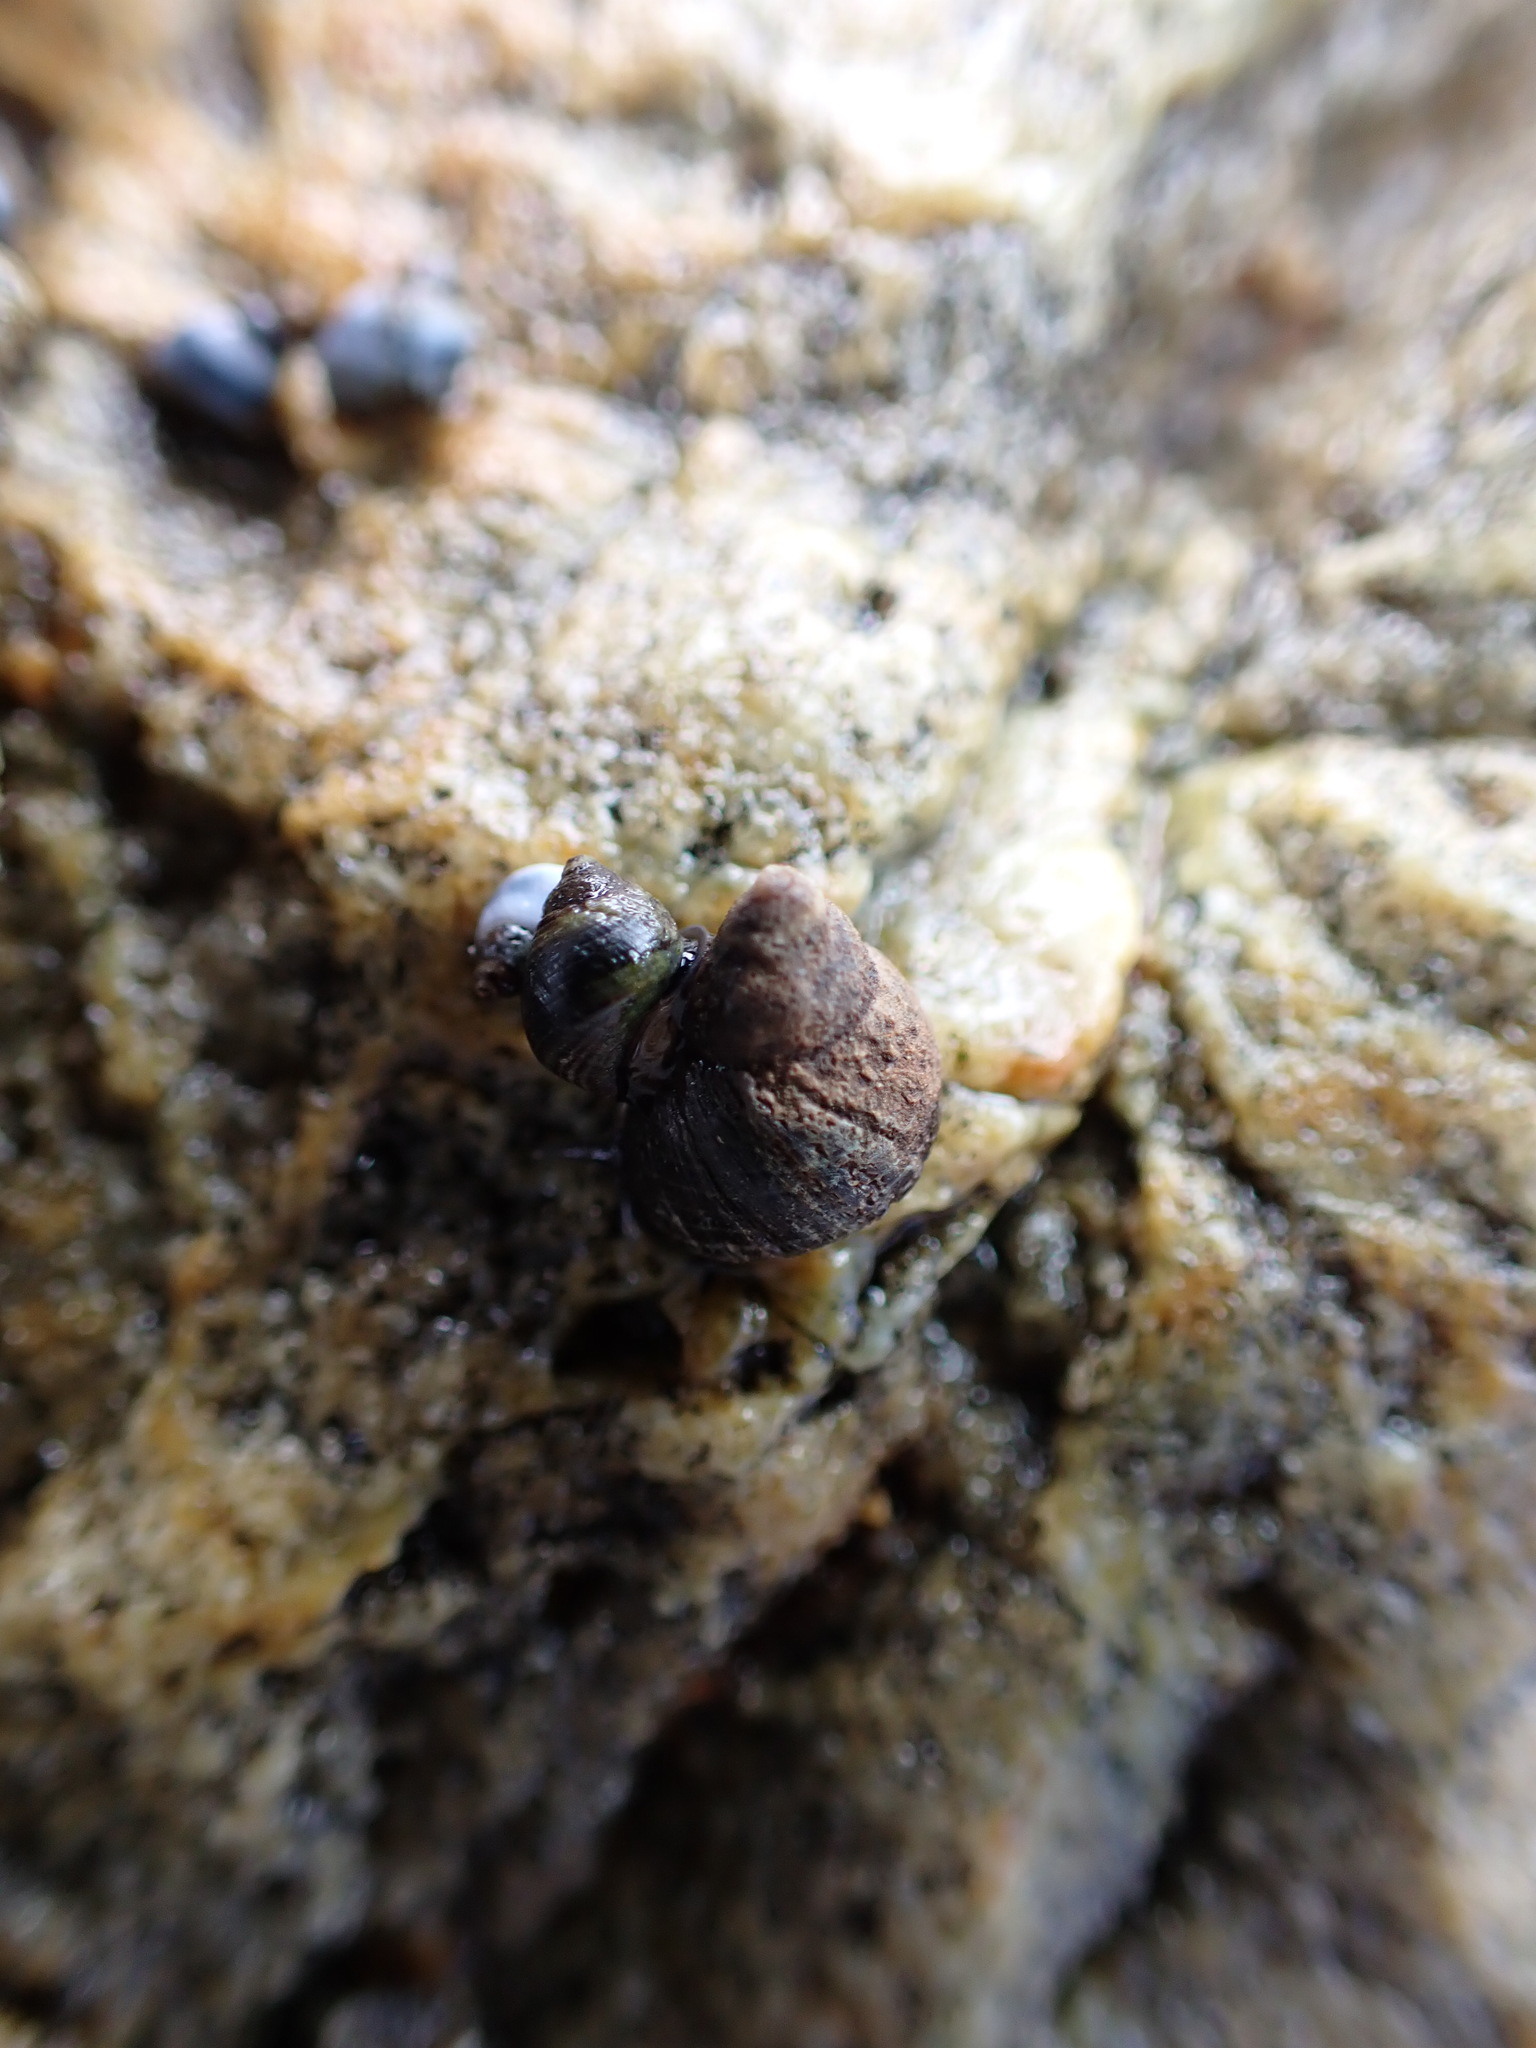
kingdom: Animalia
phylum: Mollusca
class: Gastropoda
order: Littorinimorpha
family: Littorinidae
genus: Austrolittorina
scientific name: Austrolittorina cincta
